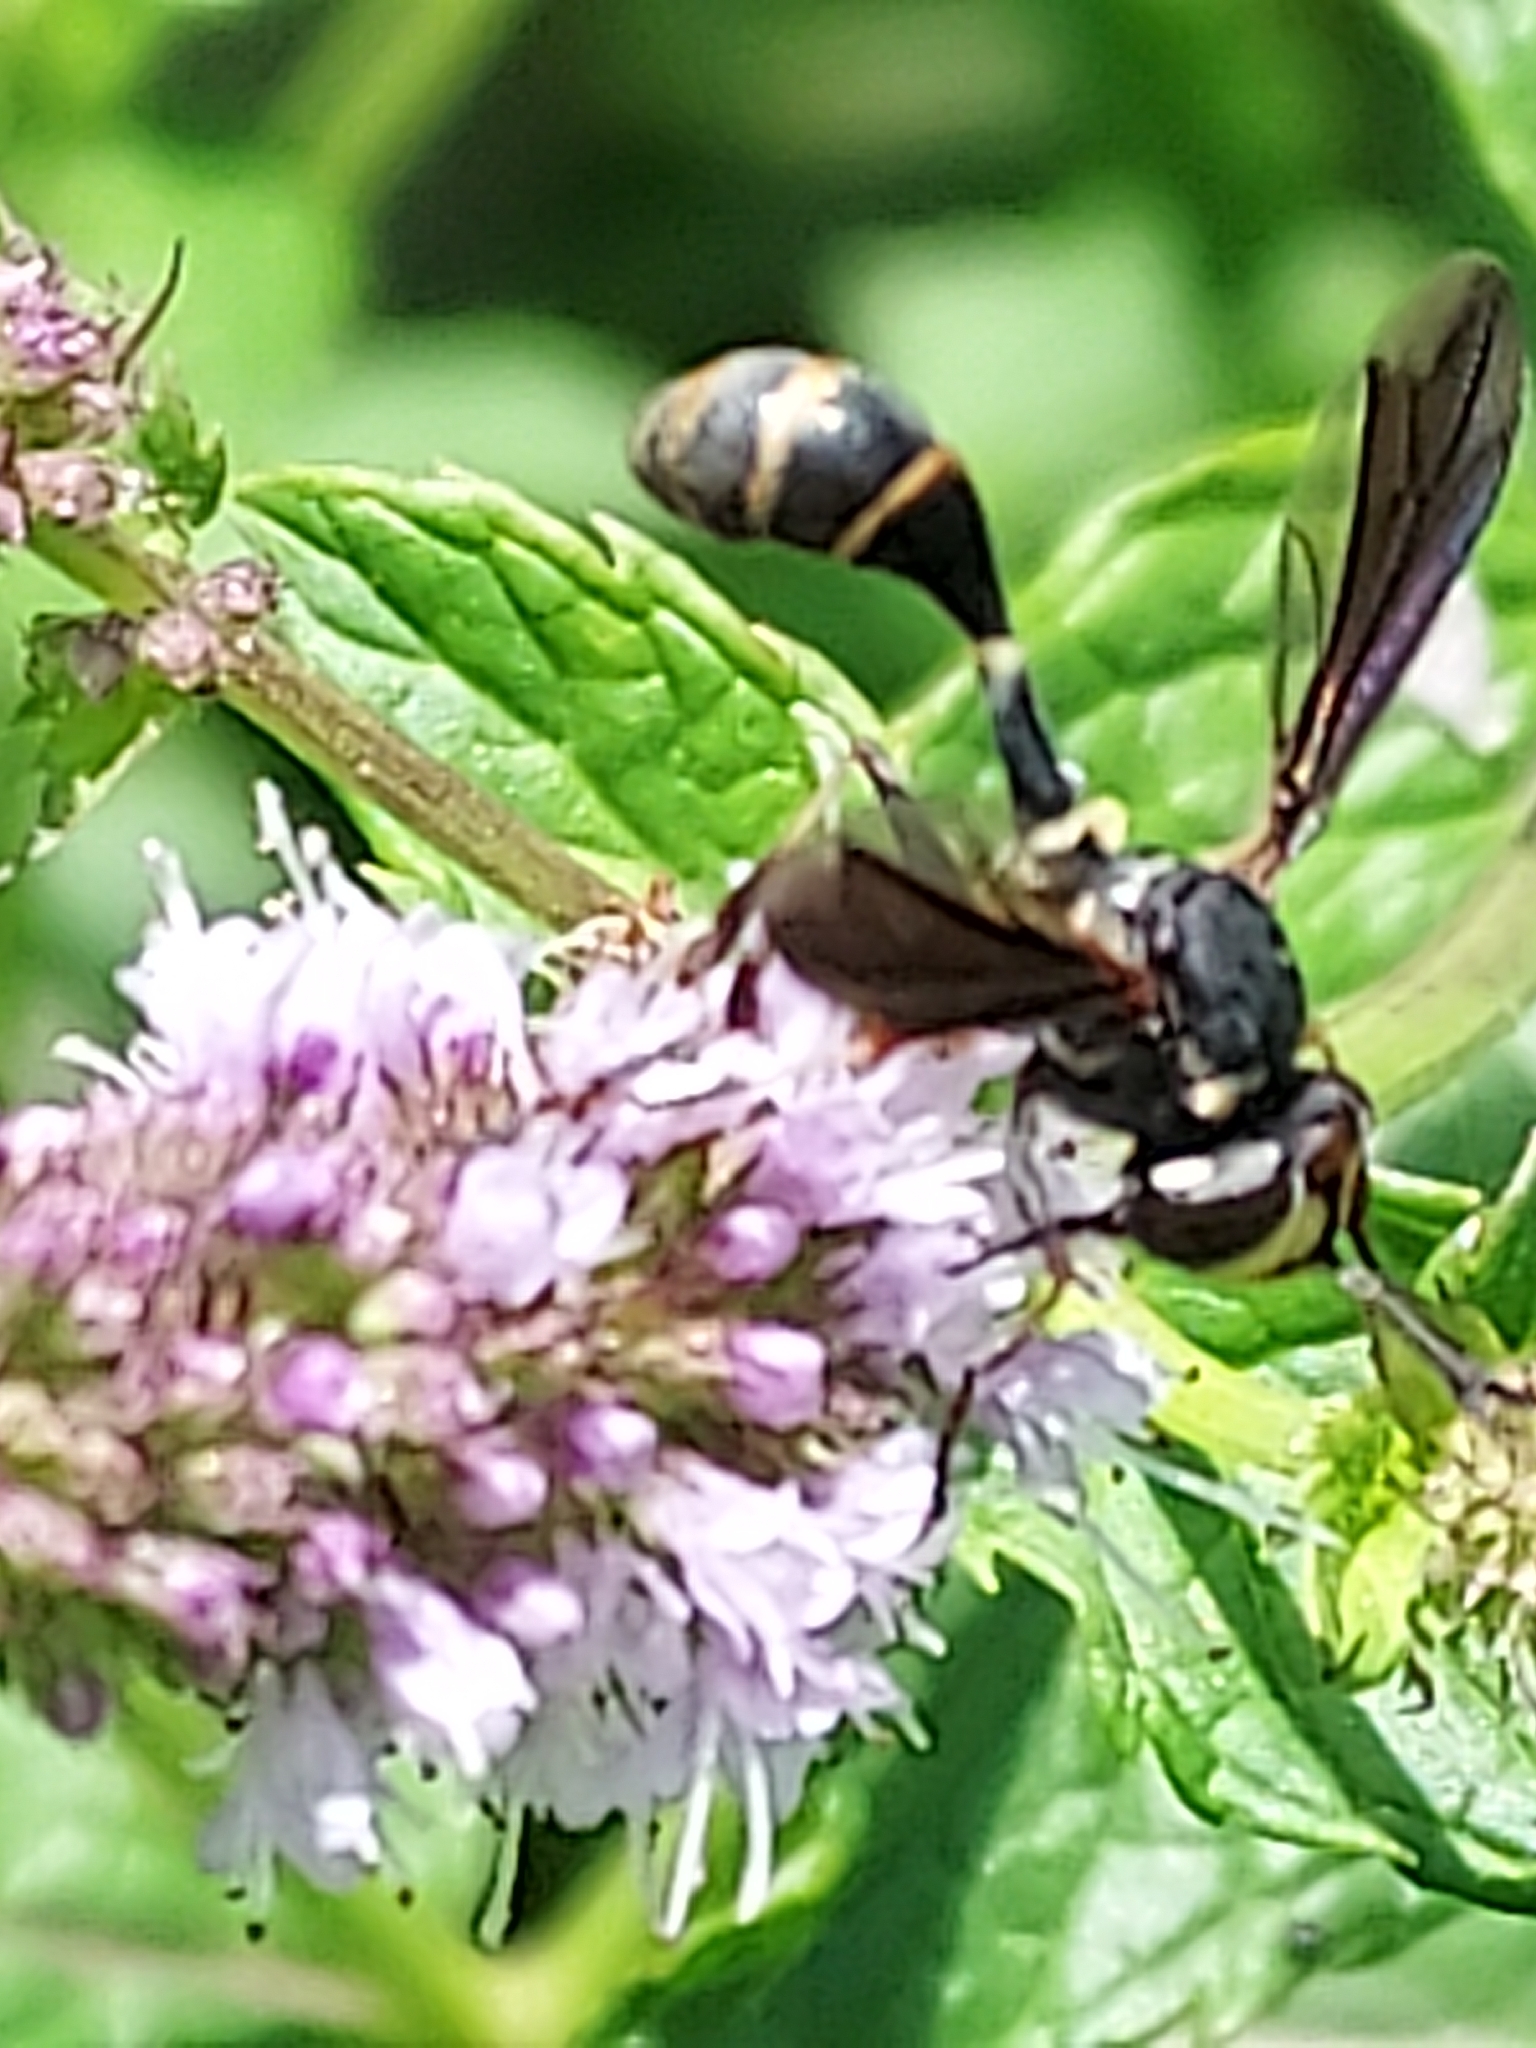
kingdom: Animalia
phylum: Arthropoda
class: Insecta
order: Diptera
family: Conopidae
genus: Physocephala
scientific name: Physocephala tibialis
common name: Common eastern physocephala
